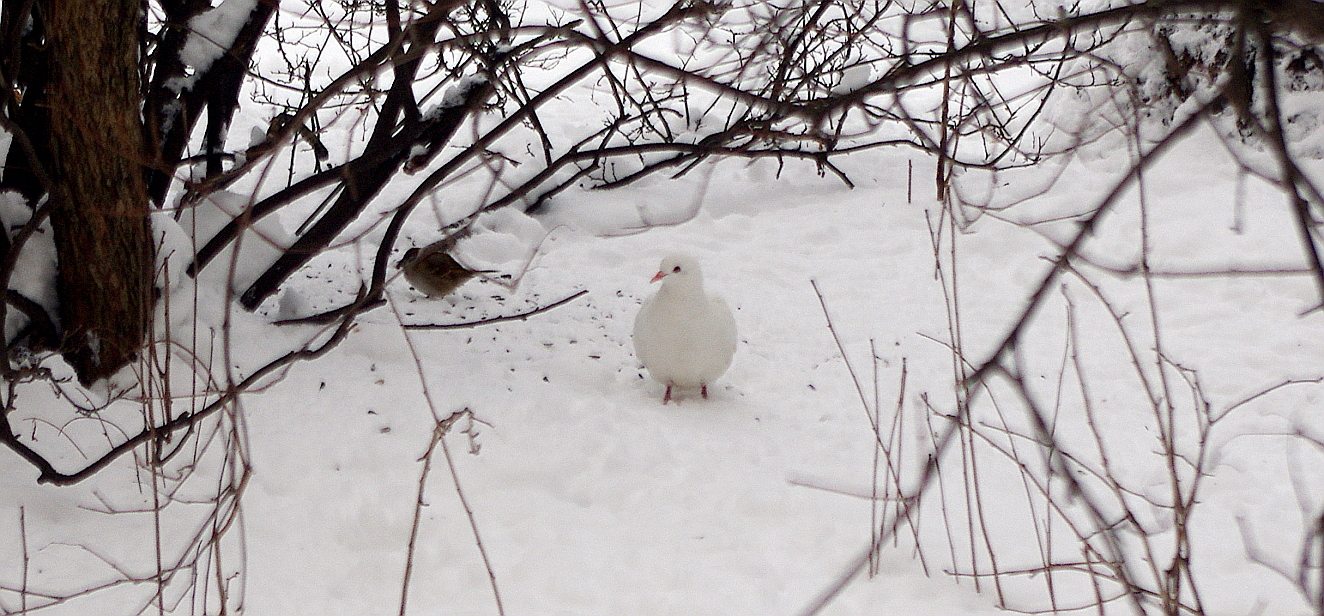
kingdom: Animalia
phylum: Chordata
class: Aves
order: Columbiformes
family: Columbidae
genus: Columba
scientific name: Columba livia
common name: Rock pigeon
